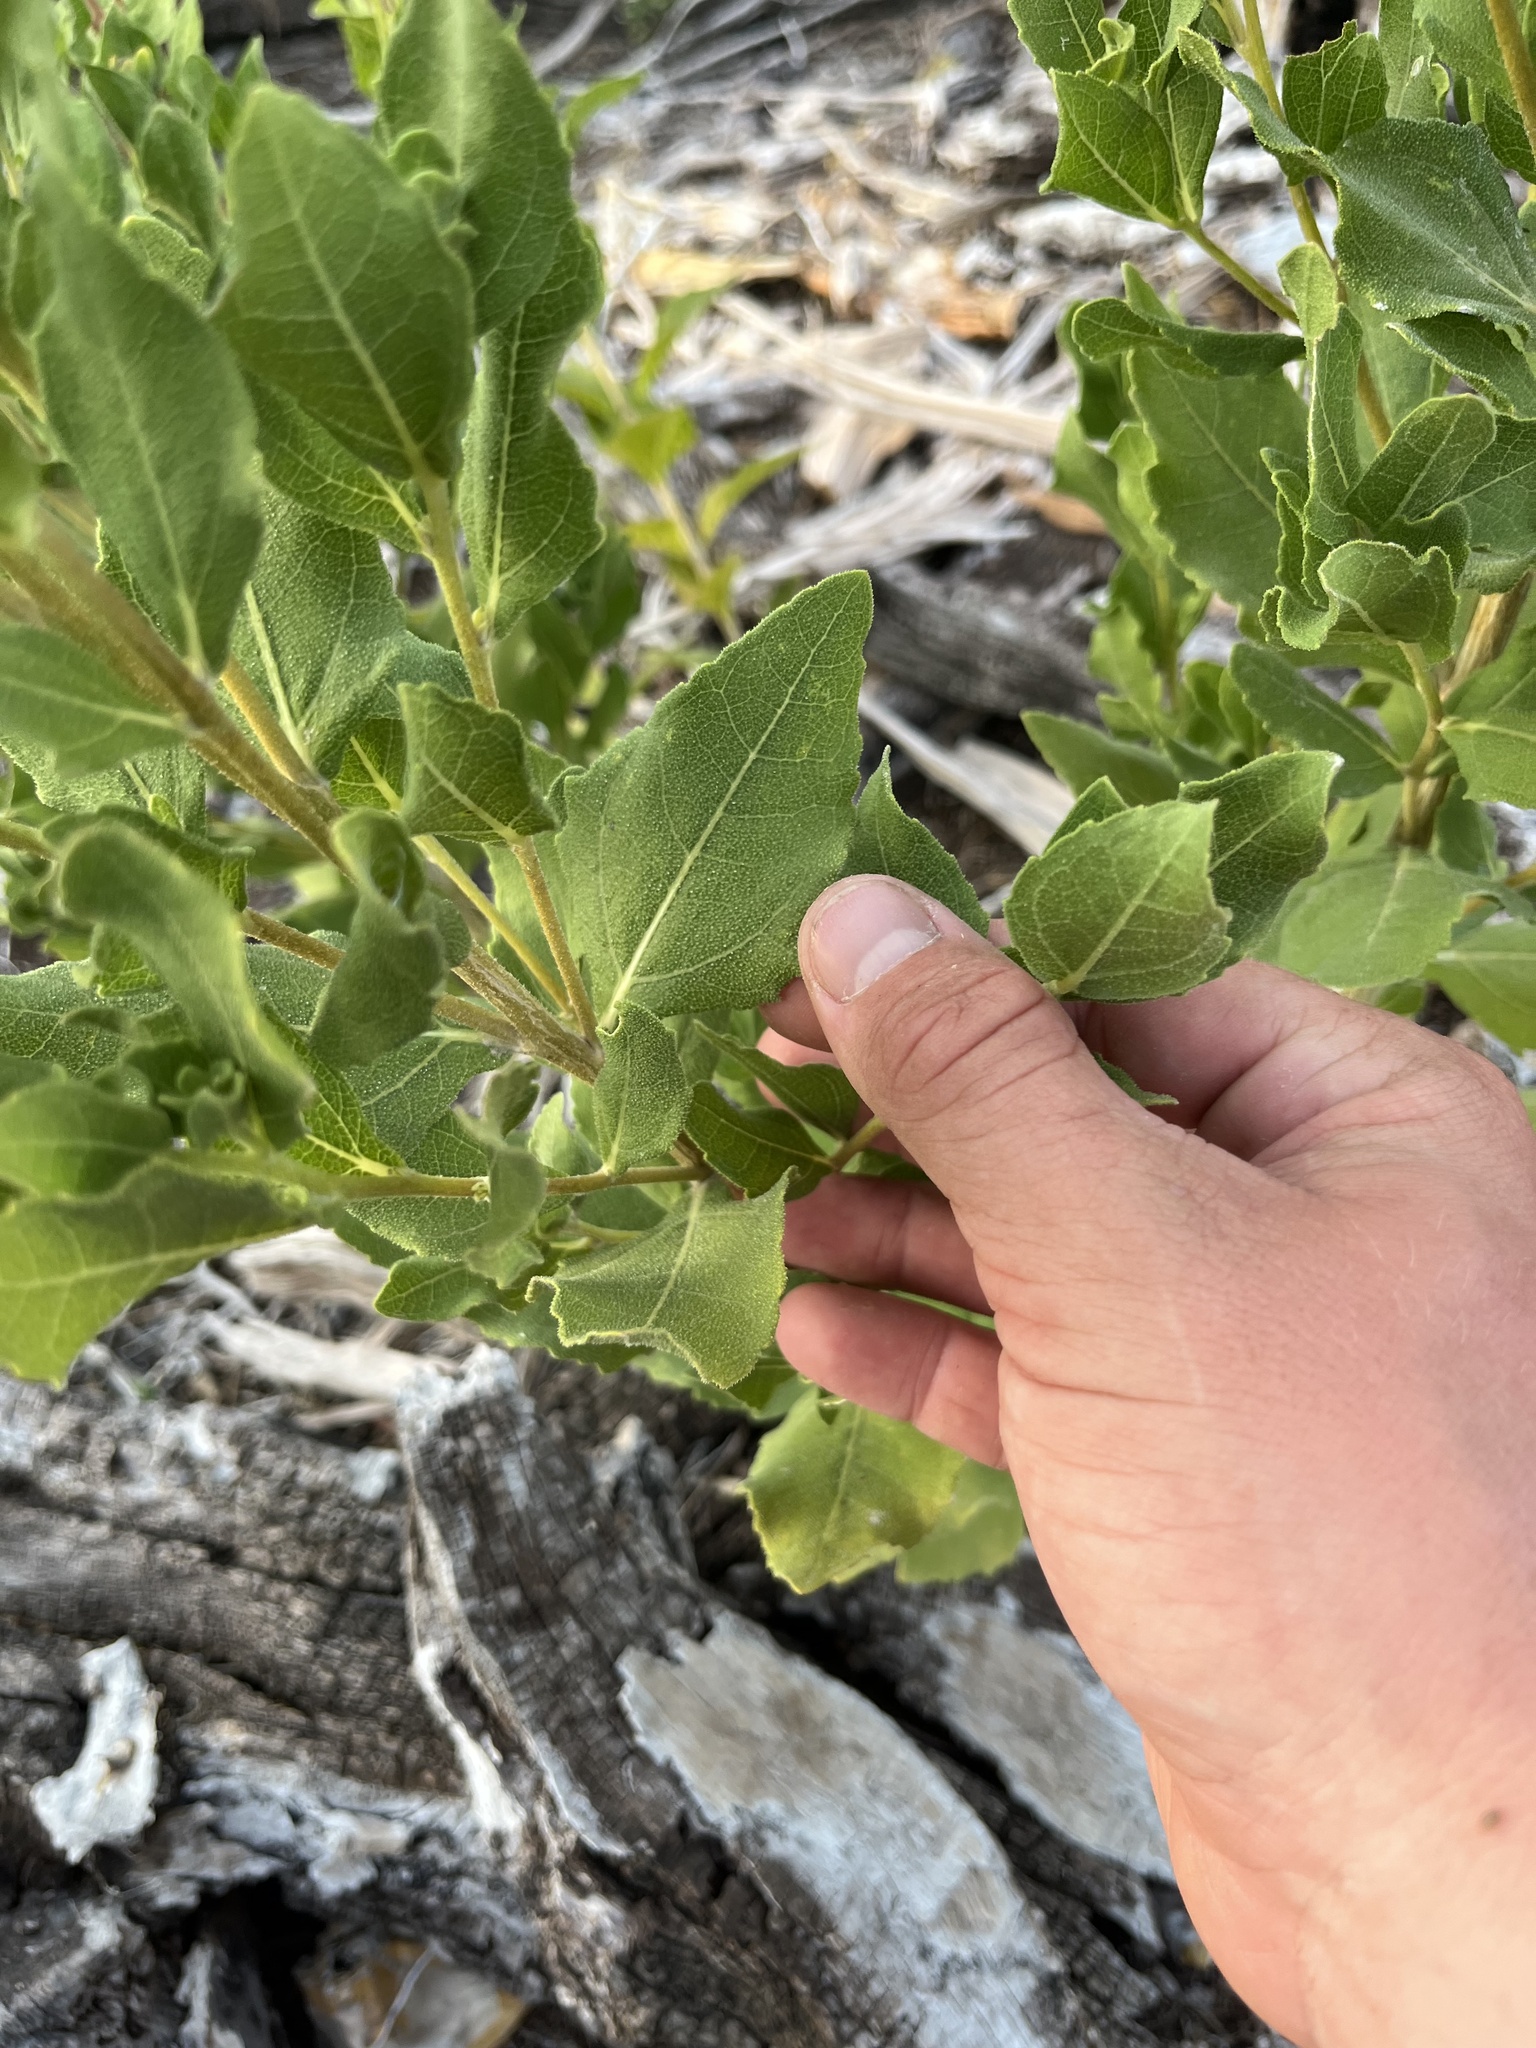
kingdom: Plantae
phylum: Tracheophyta
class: Magnoliopsida
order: Asterales
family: Asteraceae
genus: Verbesina
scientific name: Verbesina lindheimeri
